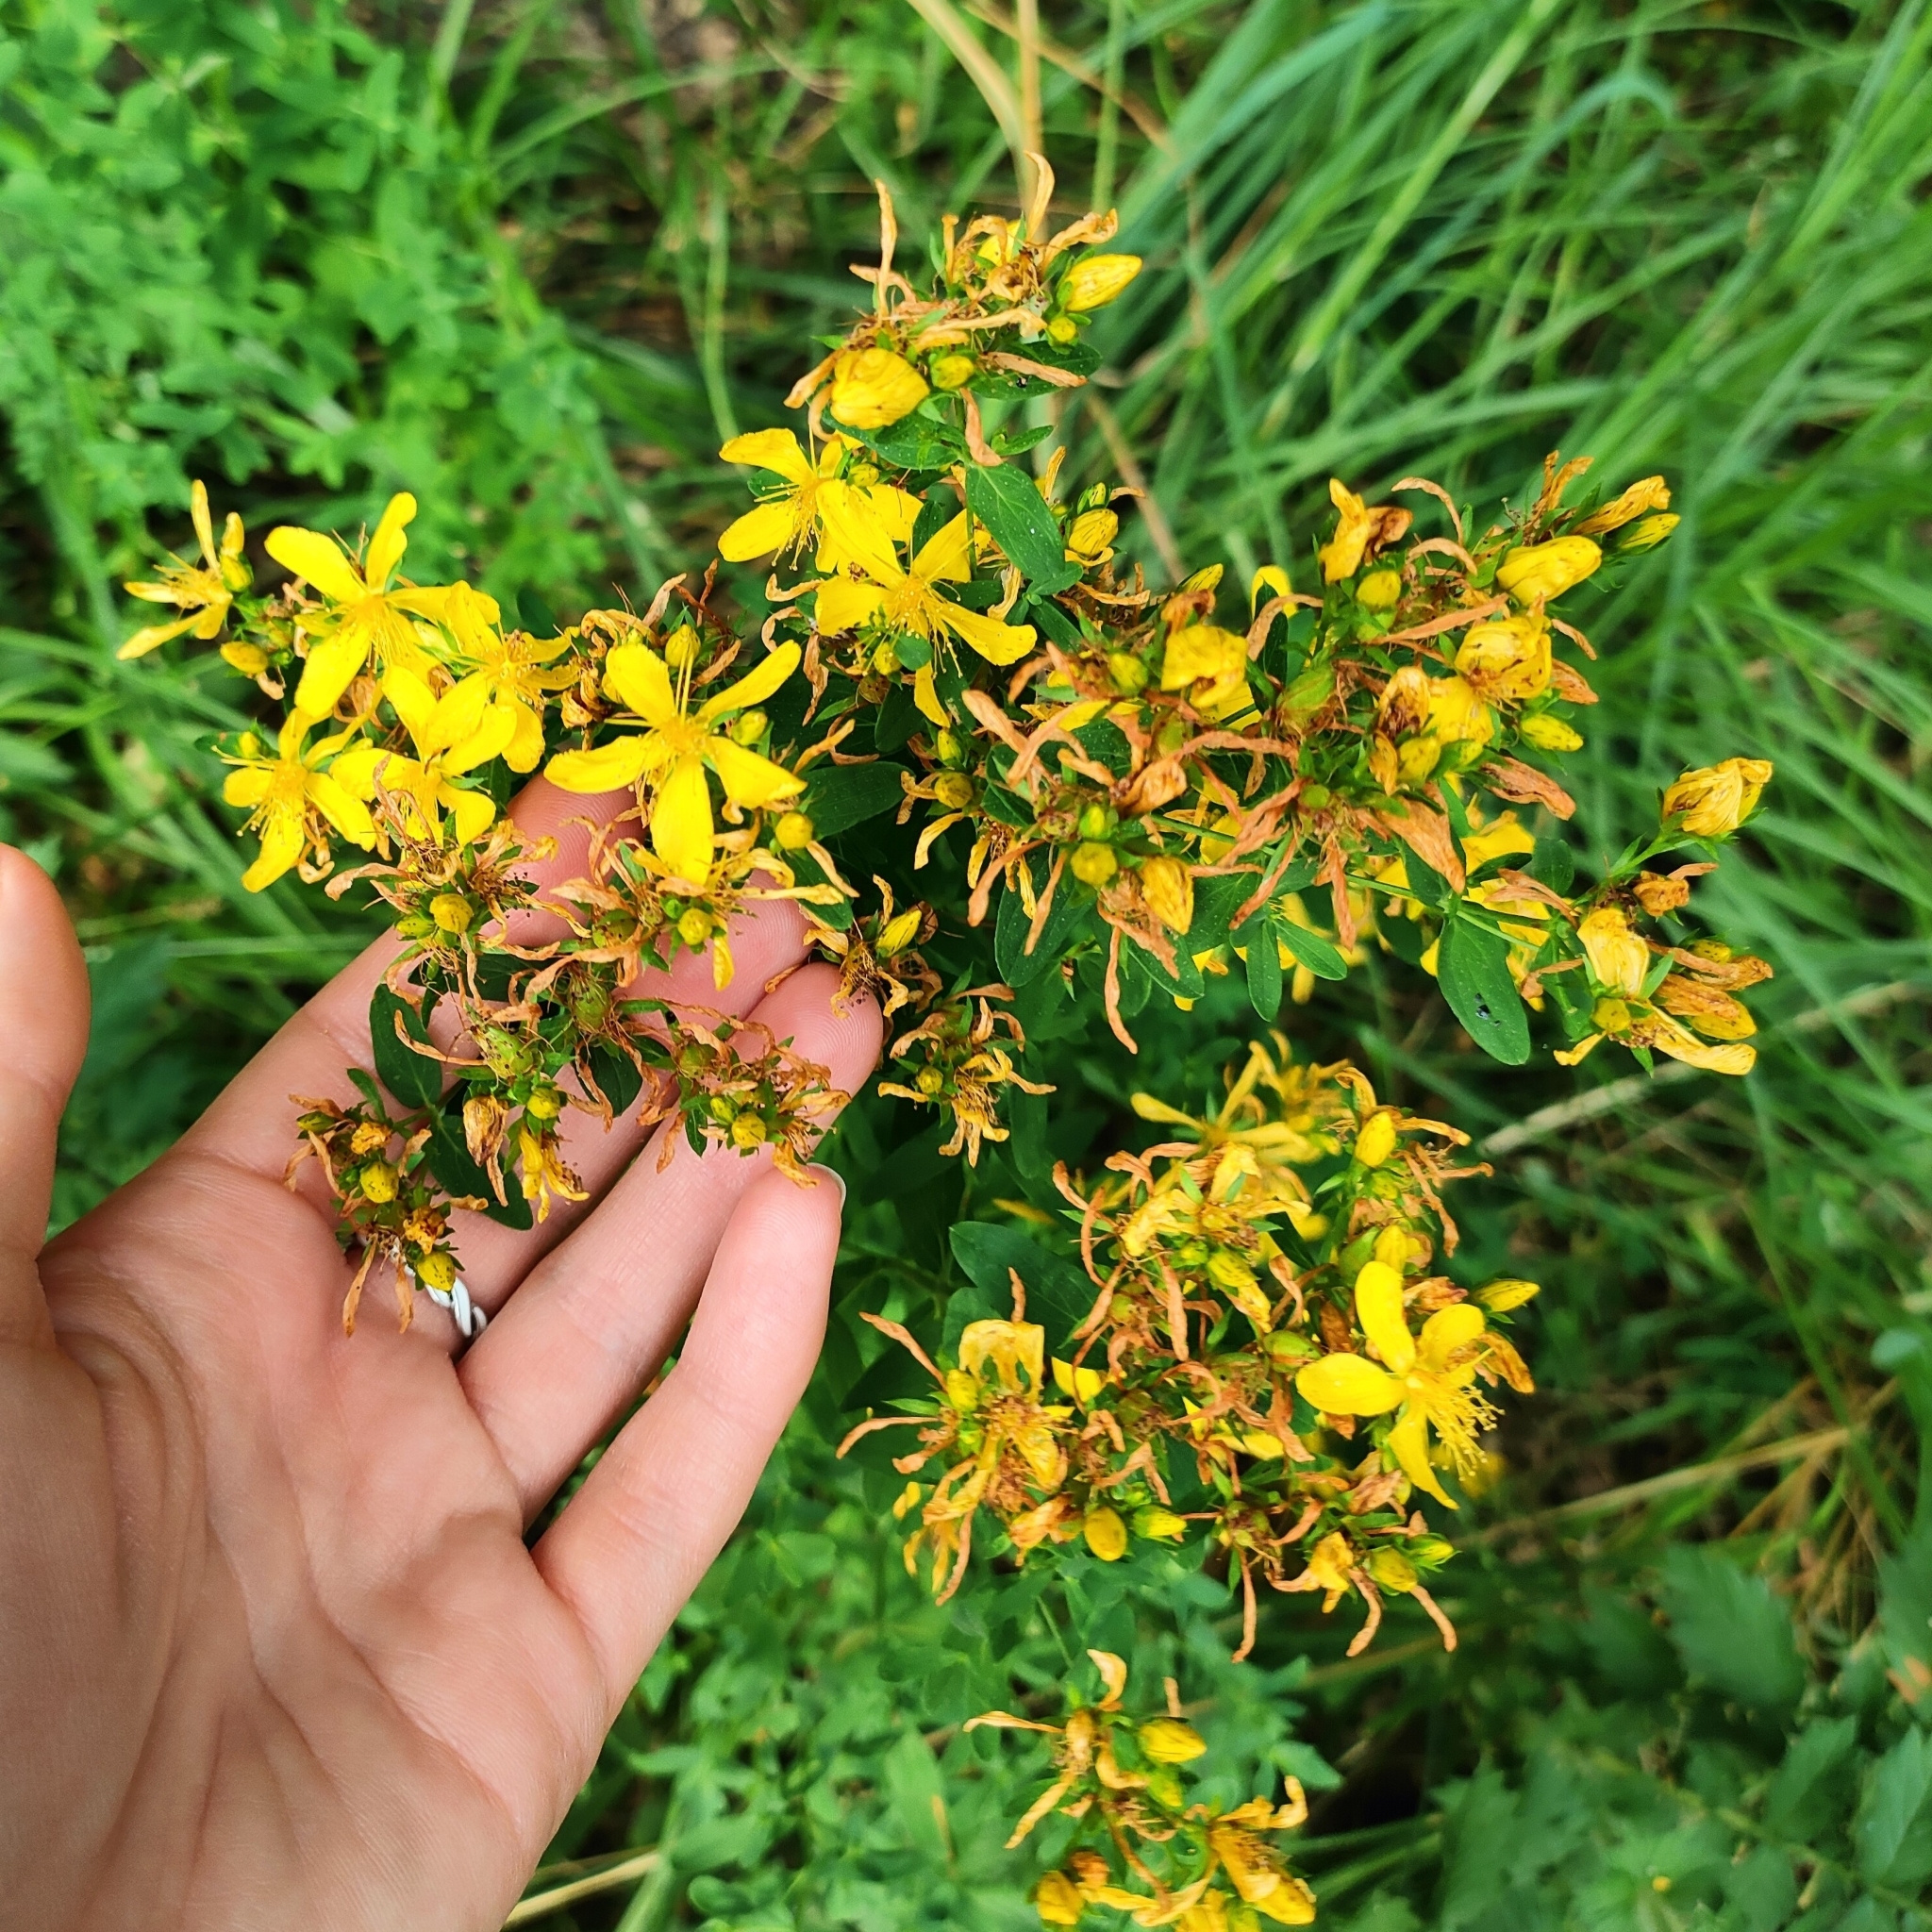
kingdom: Plantae
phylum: Tracheophyta
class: Magnoliopsida
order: Malpighiales
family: Hypericaceae
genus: Hypericum
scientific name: Hypericum perforatum
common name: Common st. johnswort
